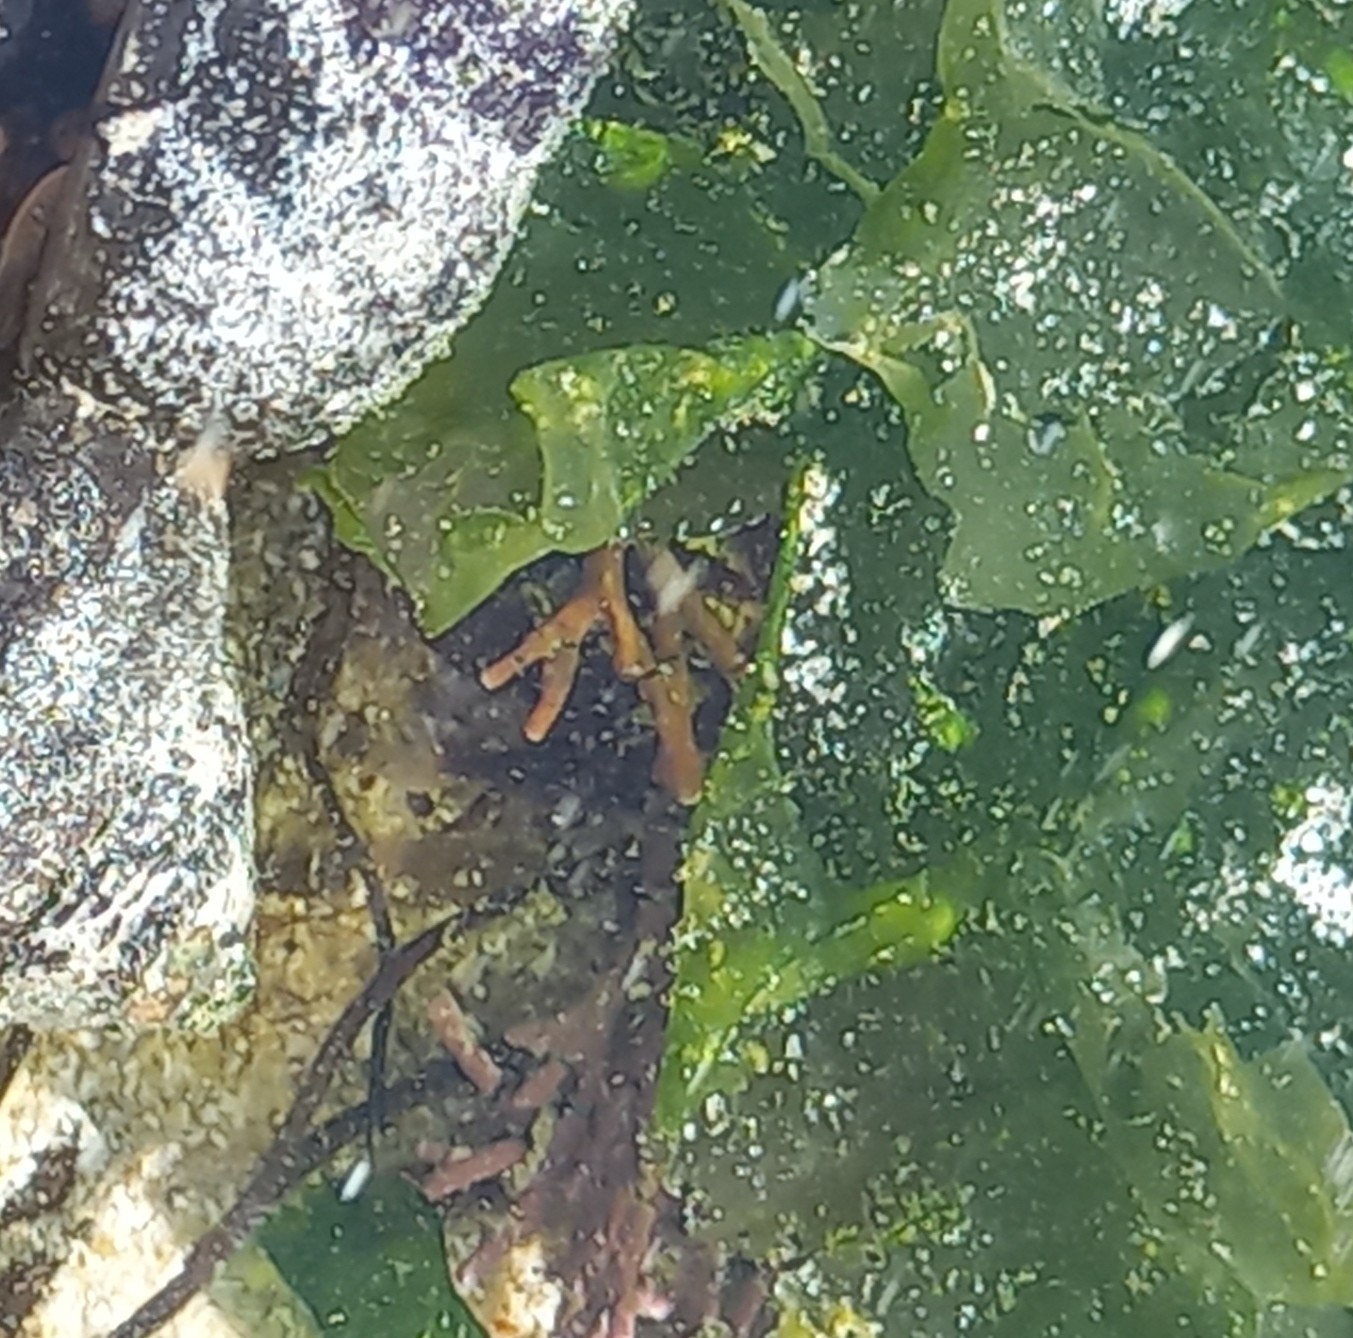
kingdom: Chromista
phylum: Ochrophyta
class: Phaeophyceae
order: Scytothamnales
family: Splachnidiaceae
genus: Splachnidium
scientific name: Splachnidium rugosum
